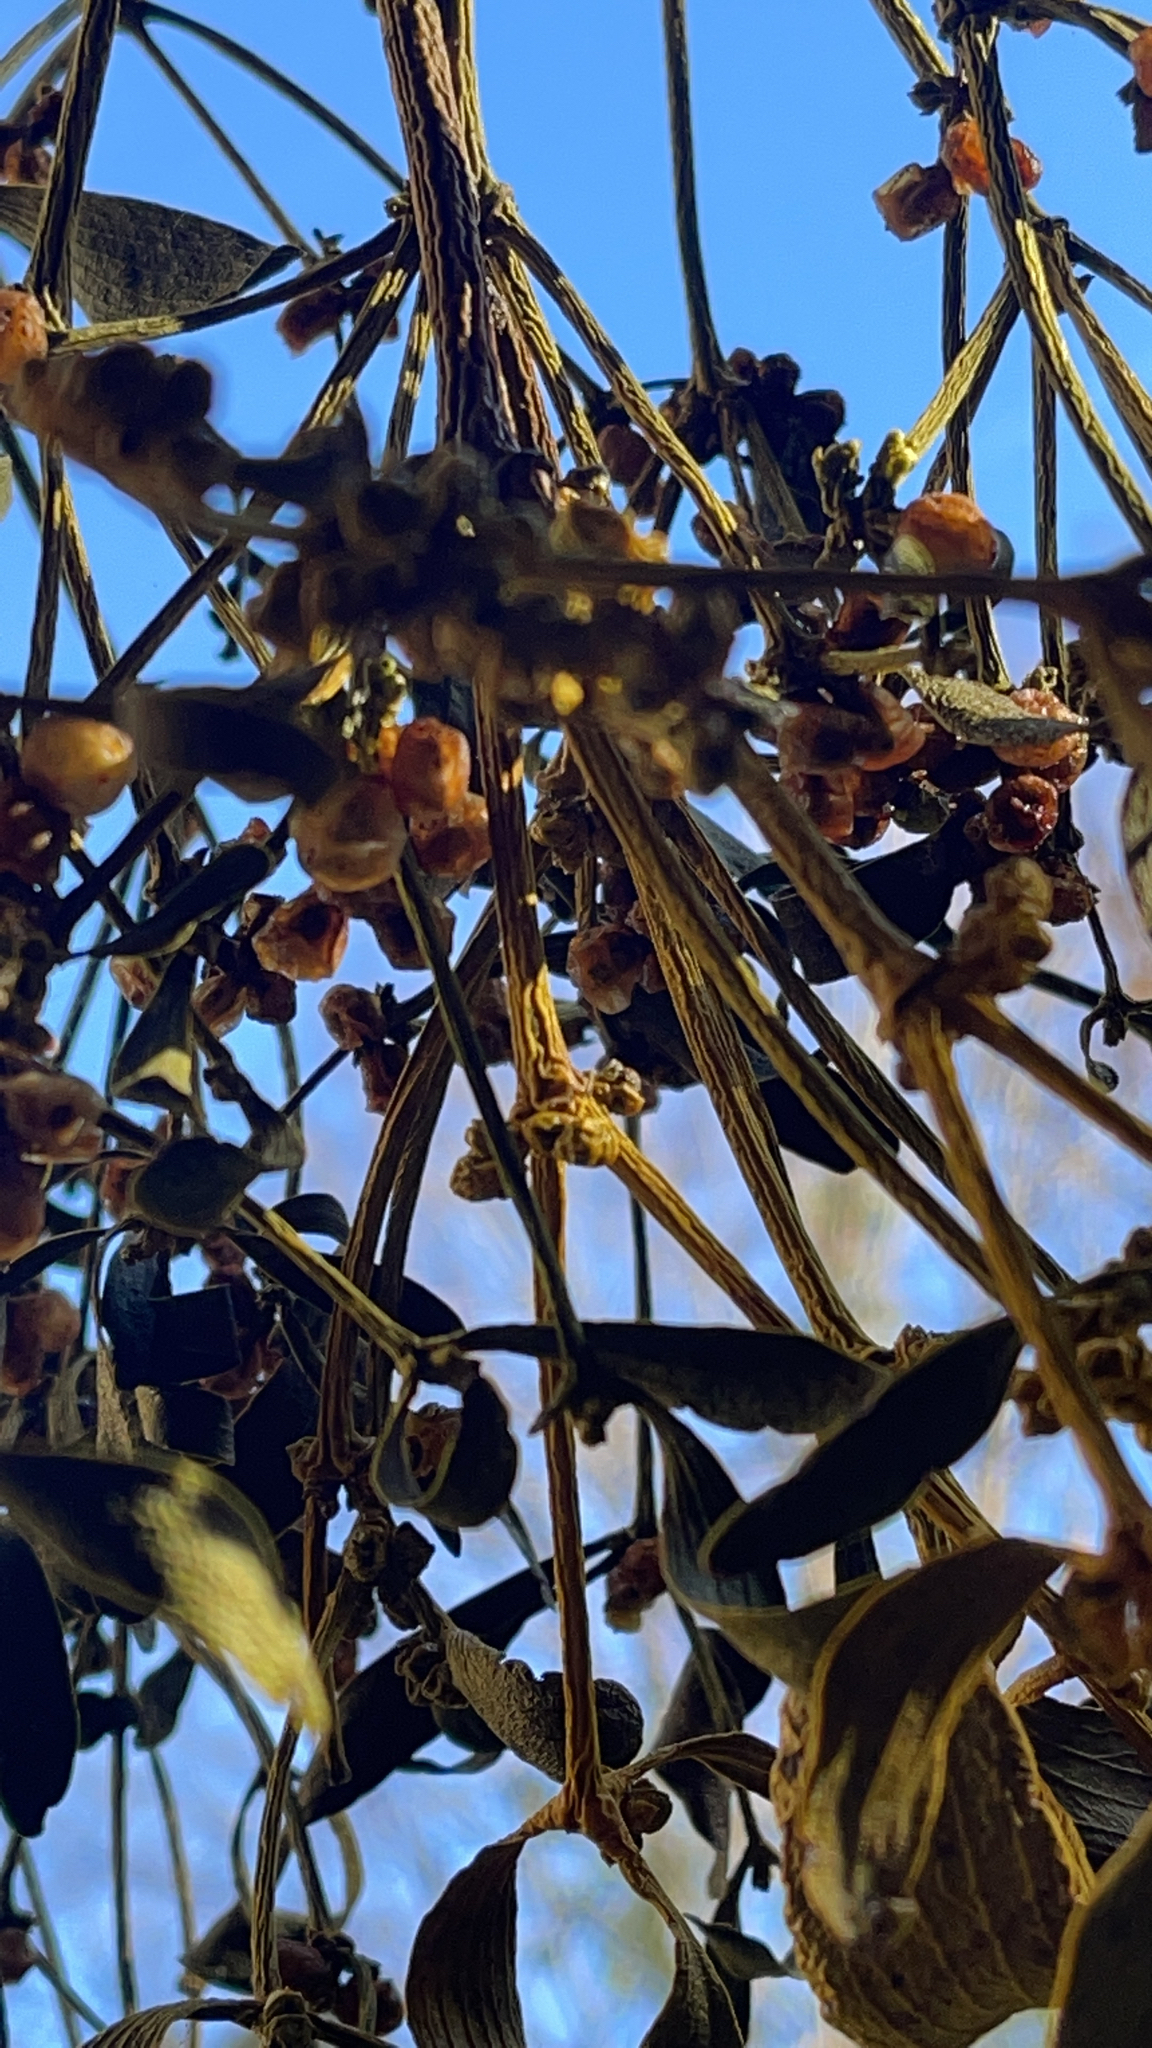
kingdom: Plantae
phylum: Tracheophyta
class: Magnoliopsida
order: Santalales
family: Viscaceae
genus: Viscum
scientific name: Viscum album
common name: Mistletoe
